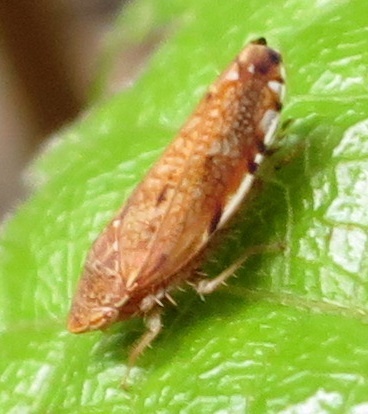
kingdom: Animalia
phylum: Arthropoda
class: Insecta
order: Hemiptera
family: Cicadellidae
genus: Scaphetus
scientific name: Scaphetus brunneus
